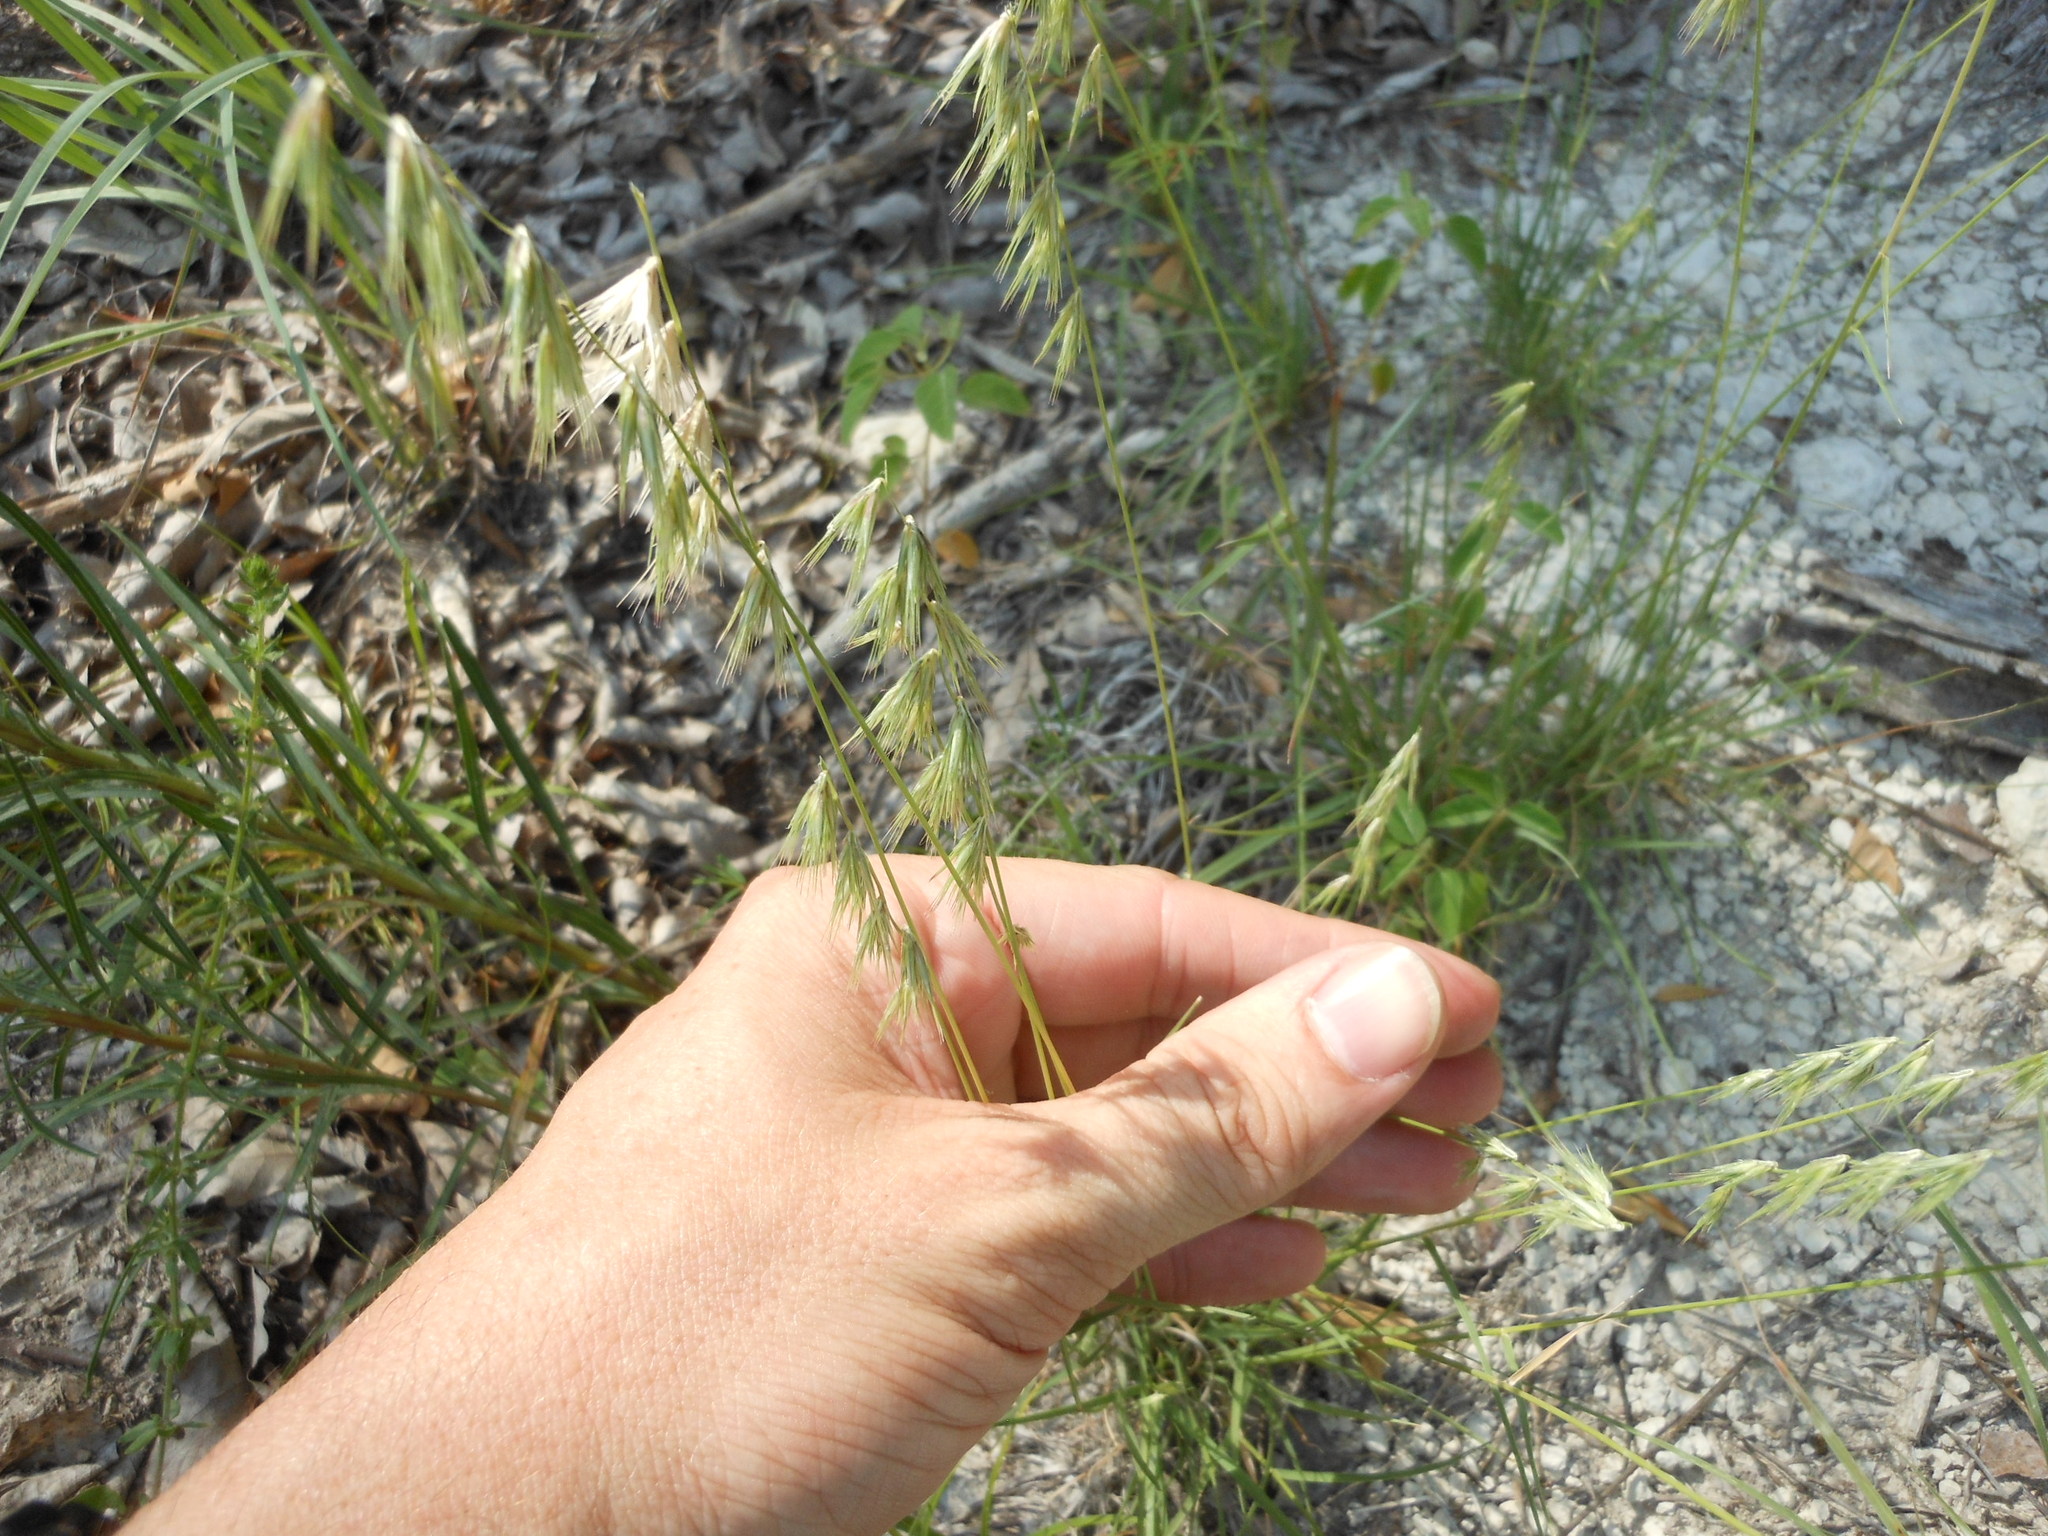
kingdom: Plantae
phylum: Tracheophyta
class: Liliopsida
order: Poales
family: Poaceae
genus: Bouteloua
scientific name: Bouteloua rigidiseta
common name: Texas grama
